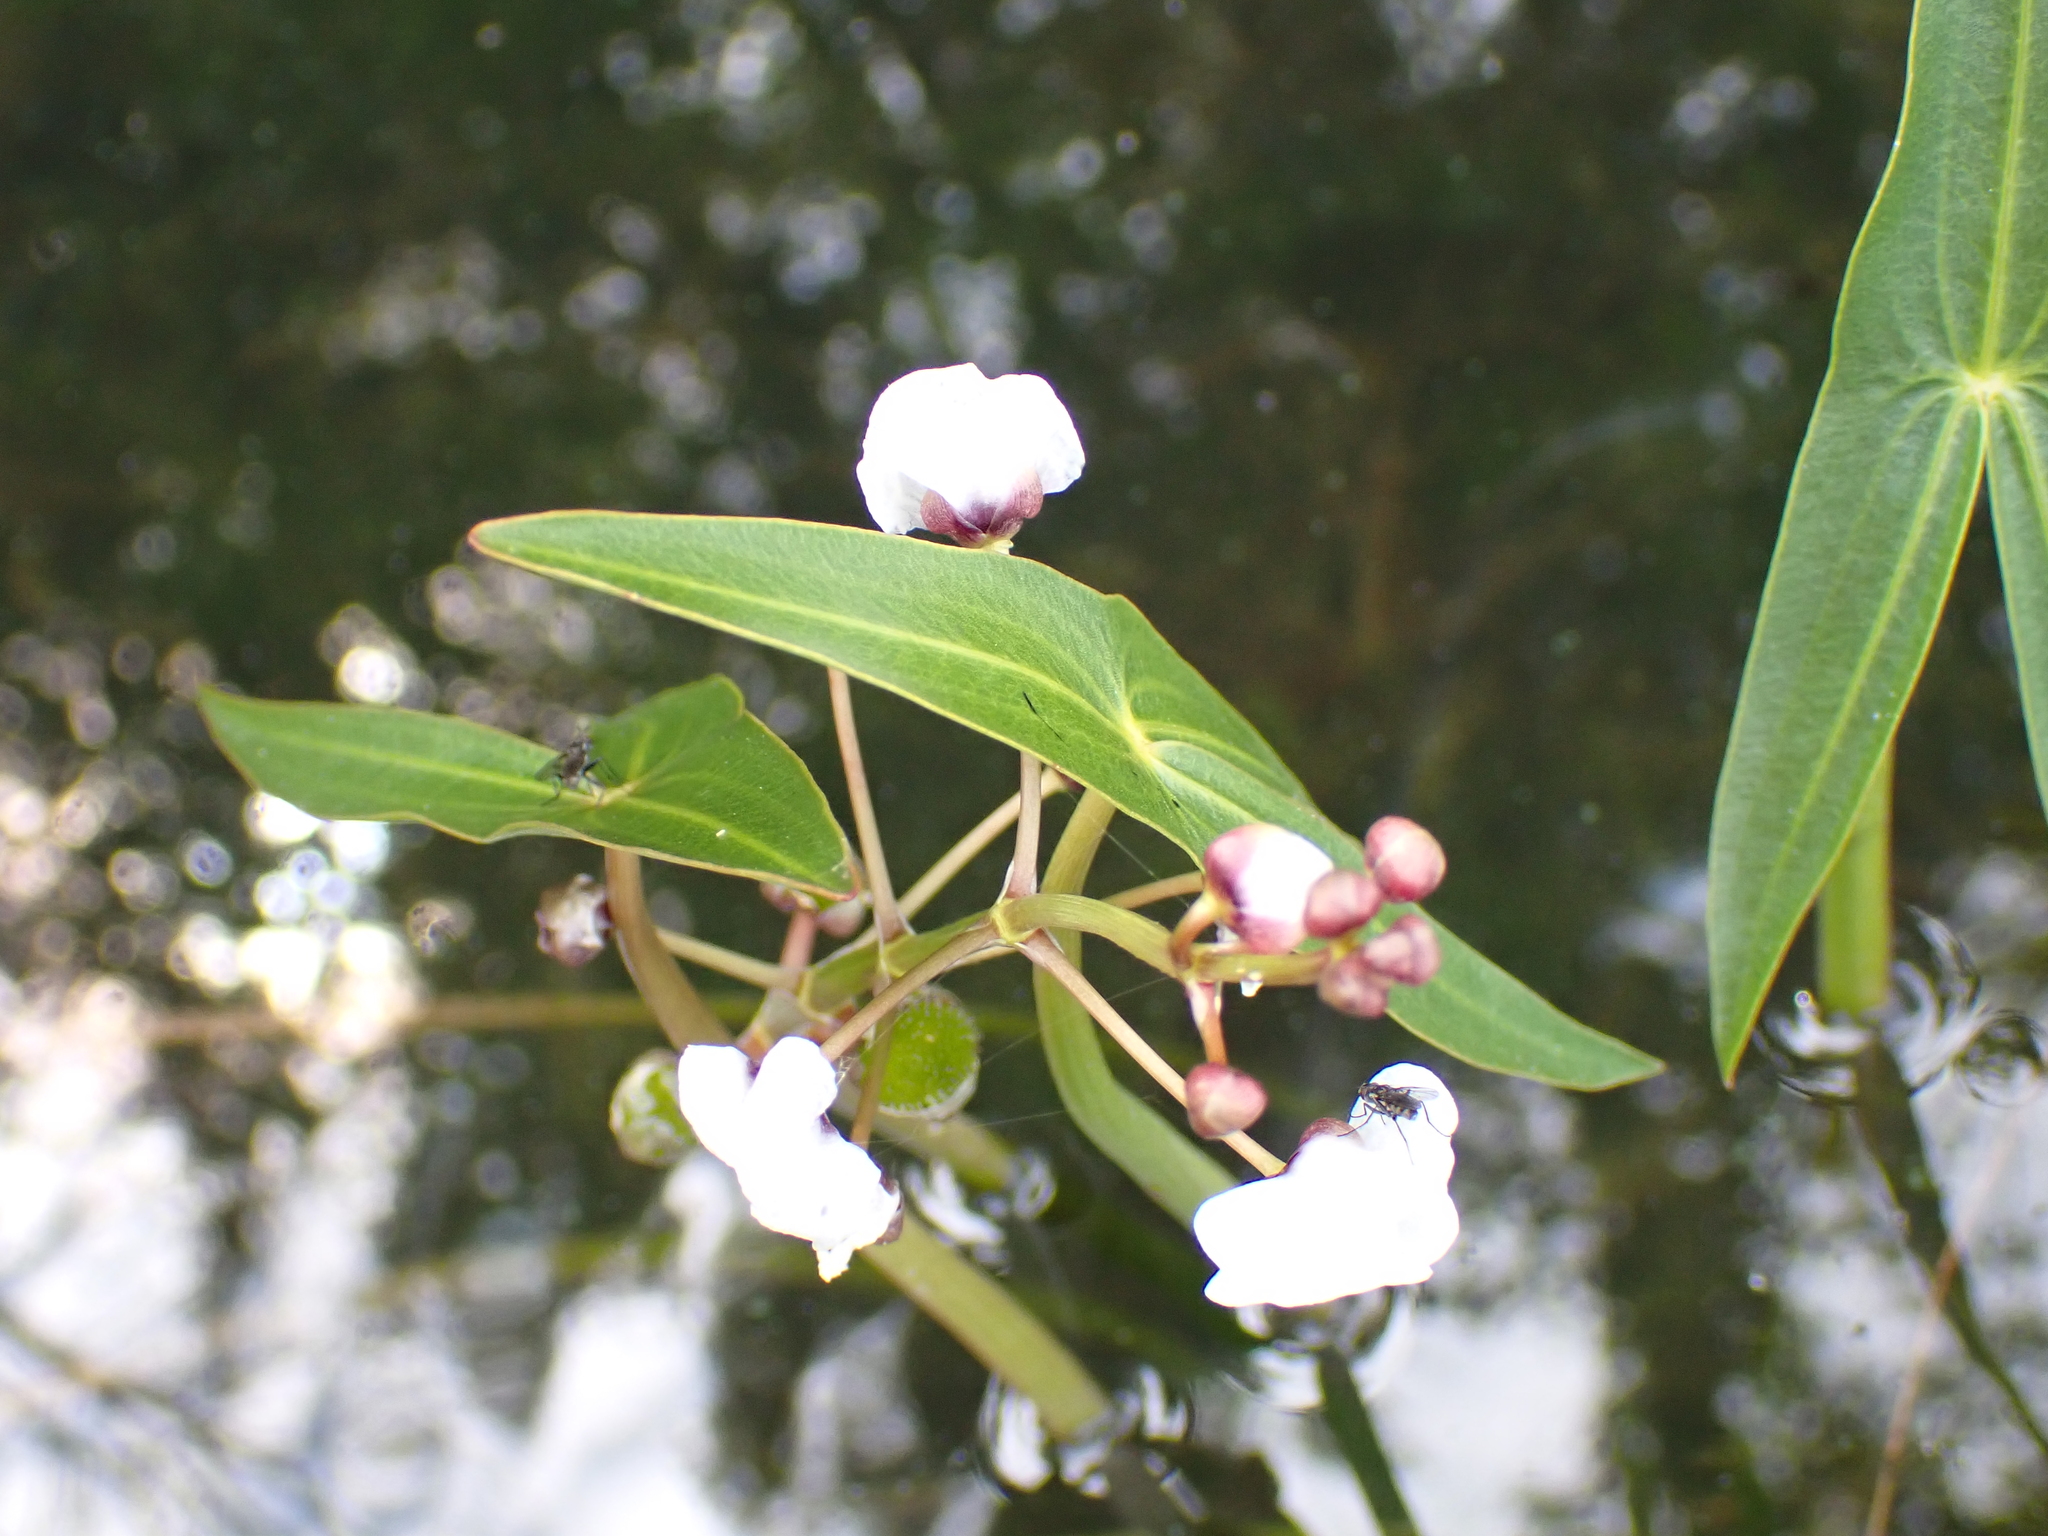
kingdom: Plantae
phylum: Tracheophyta
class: Liliopsida
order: Alismatales
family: Alismataceae
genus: Sagittaria
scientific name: Sagittaria sagittifolia
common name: Arrowhead
